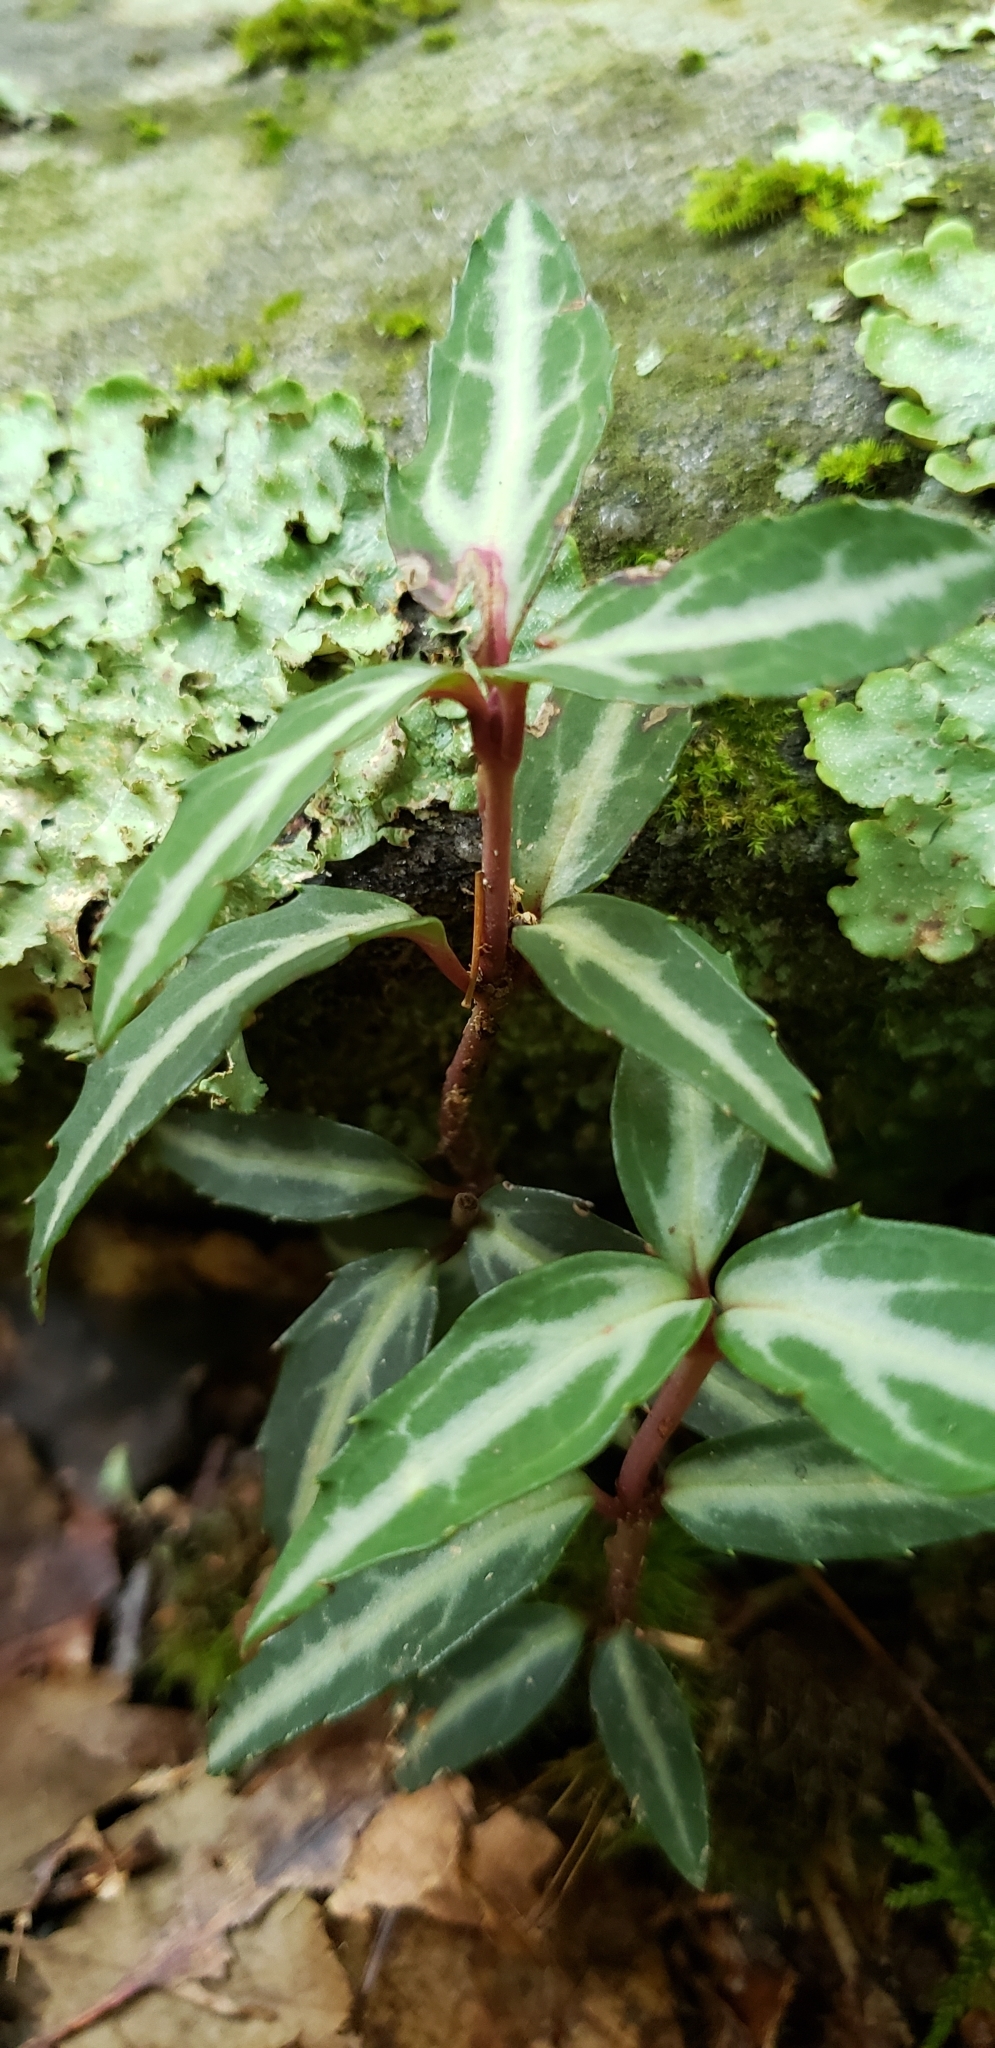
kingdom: Plantae
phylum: Tracheophyta
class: Magnoliopsida
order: Ericales
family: Ericaceae
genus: Chimaphila
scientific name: Chimaphila maculata
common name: Spotted pipsissewa
